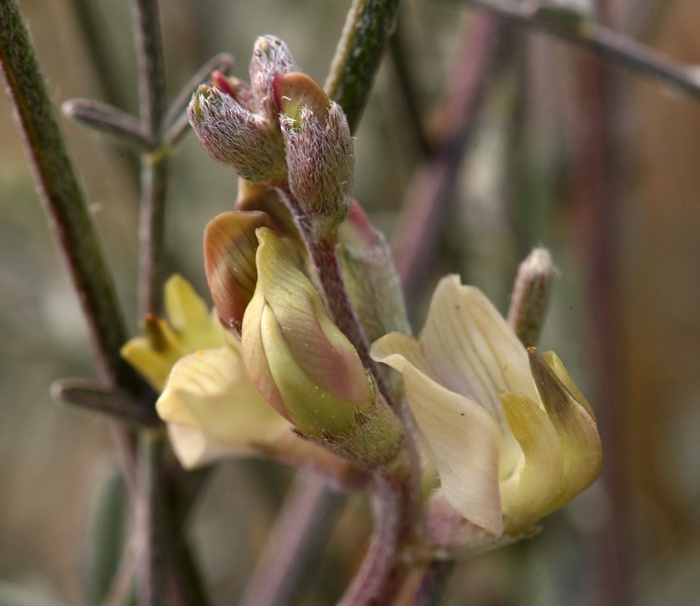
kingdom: Plantae
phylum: Tracheophyta
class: Magnoliopsida
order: Fabales
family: Fabaceae
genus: Astragalus
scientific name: Astragalus obscurus
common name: Arcane milk-vetch
